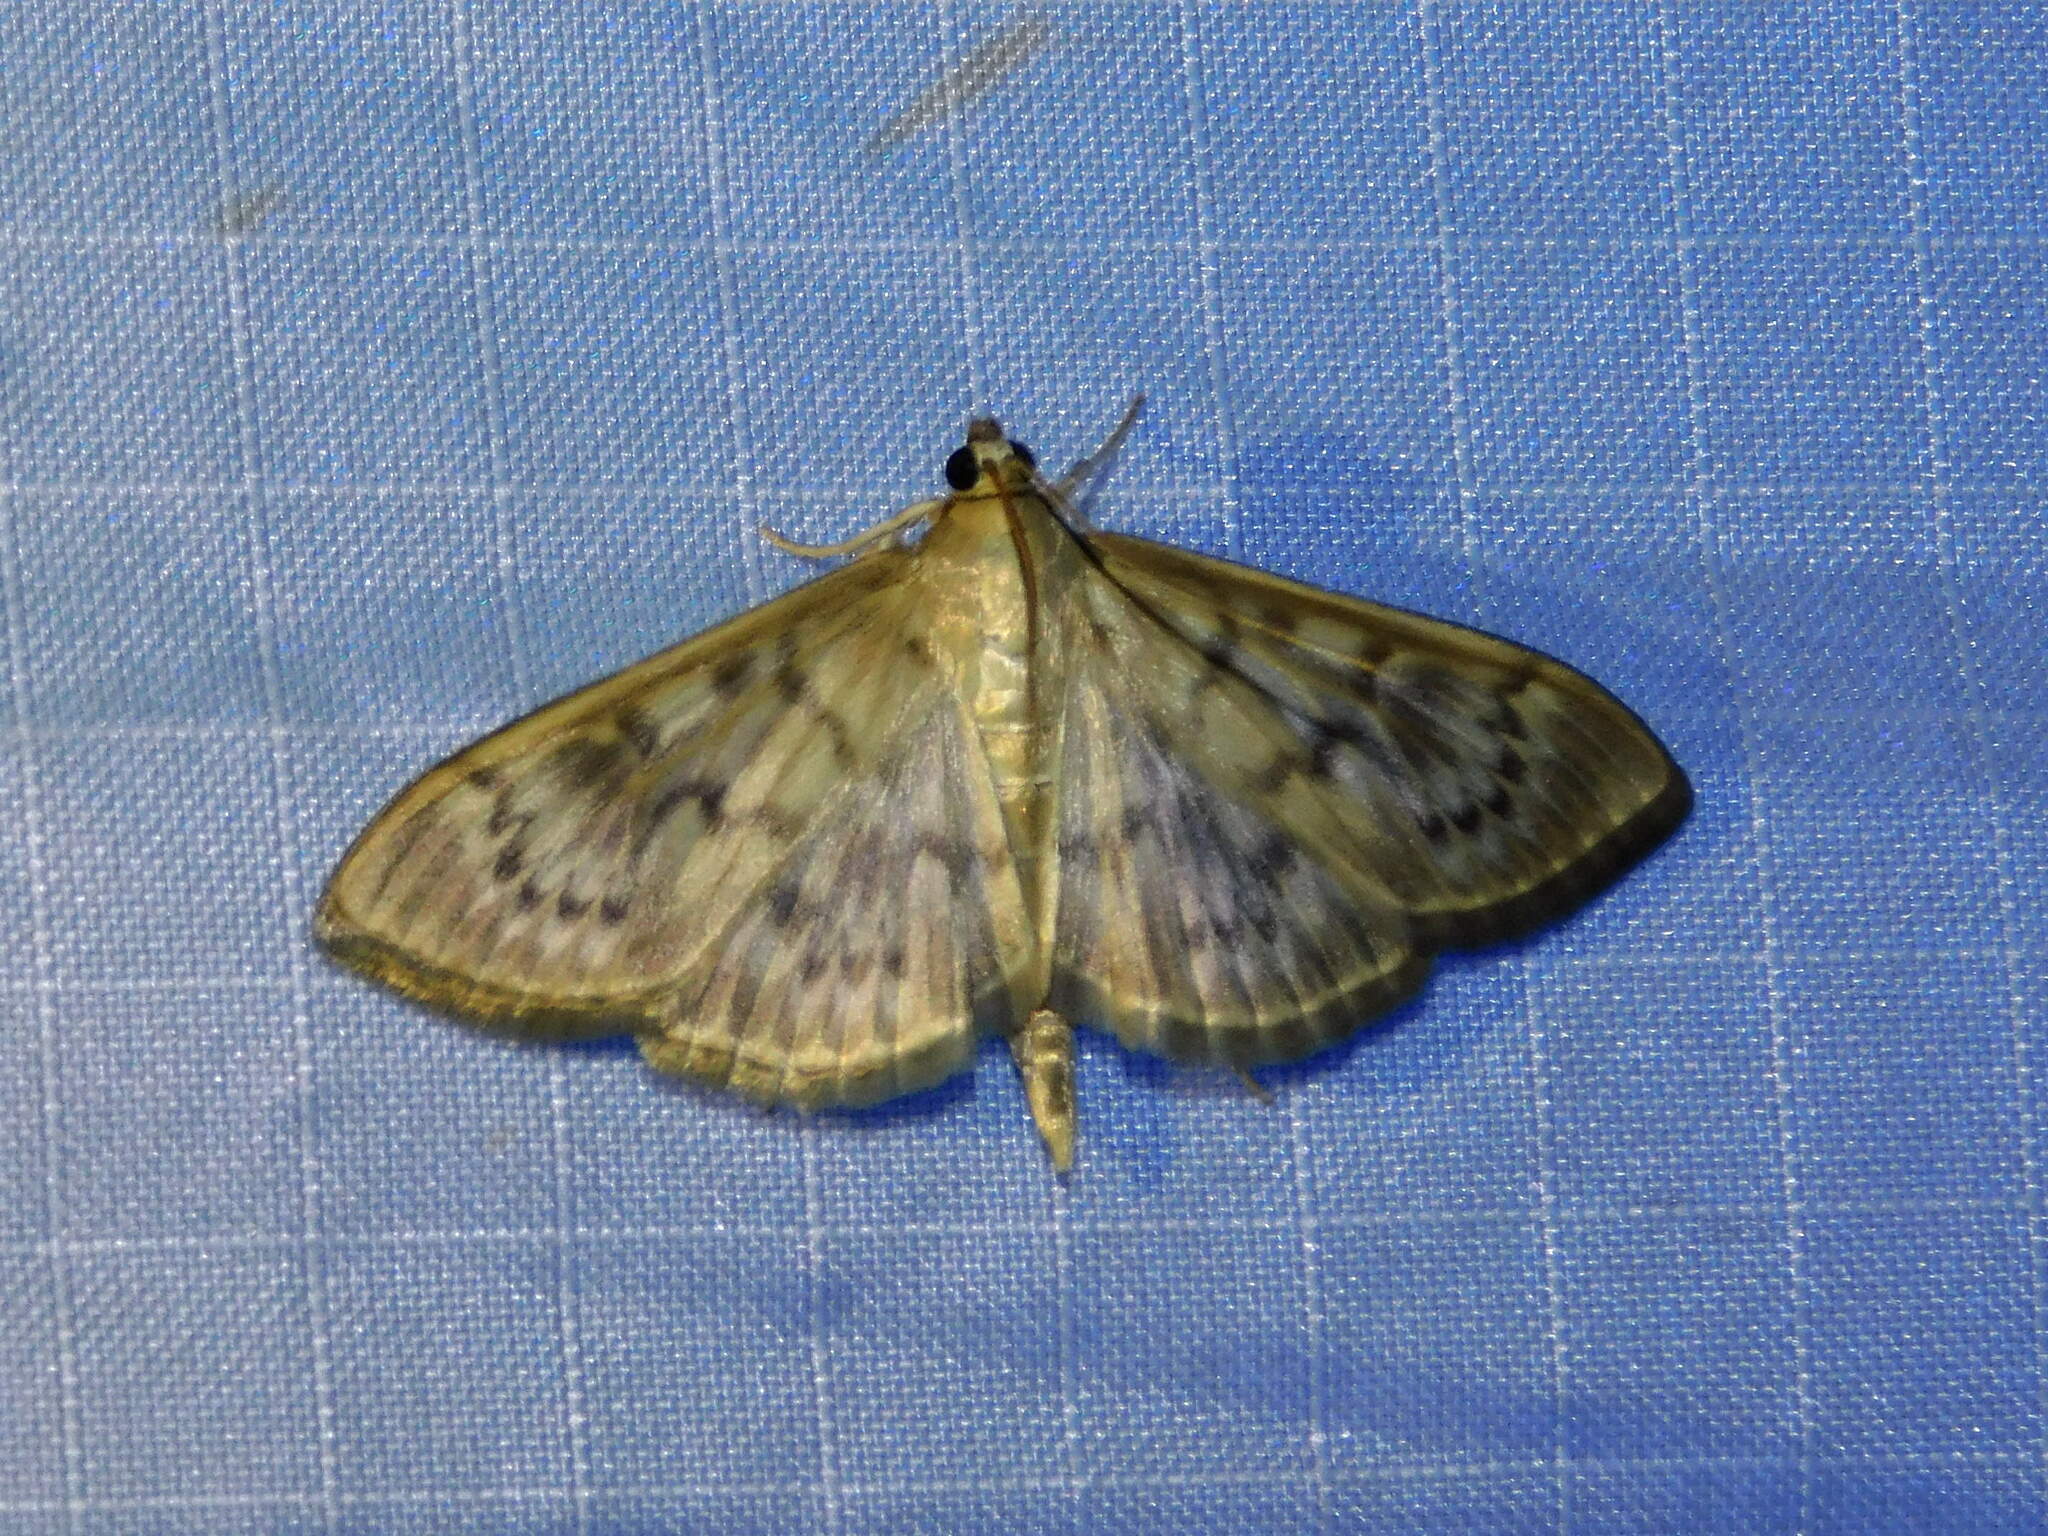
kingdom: Animalia
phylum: Arthropoda
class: Insecta
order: Lepidoptera
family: Crambidae
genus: Patania
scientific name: Patania ruralis
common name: Mother of pearl
